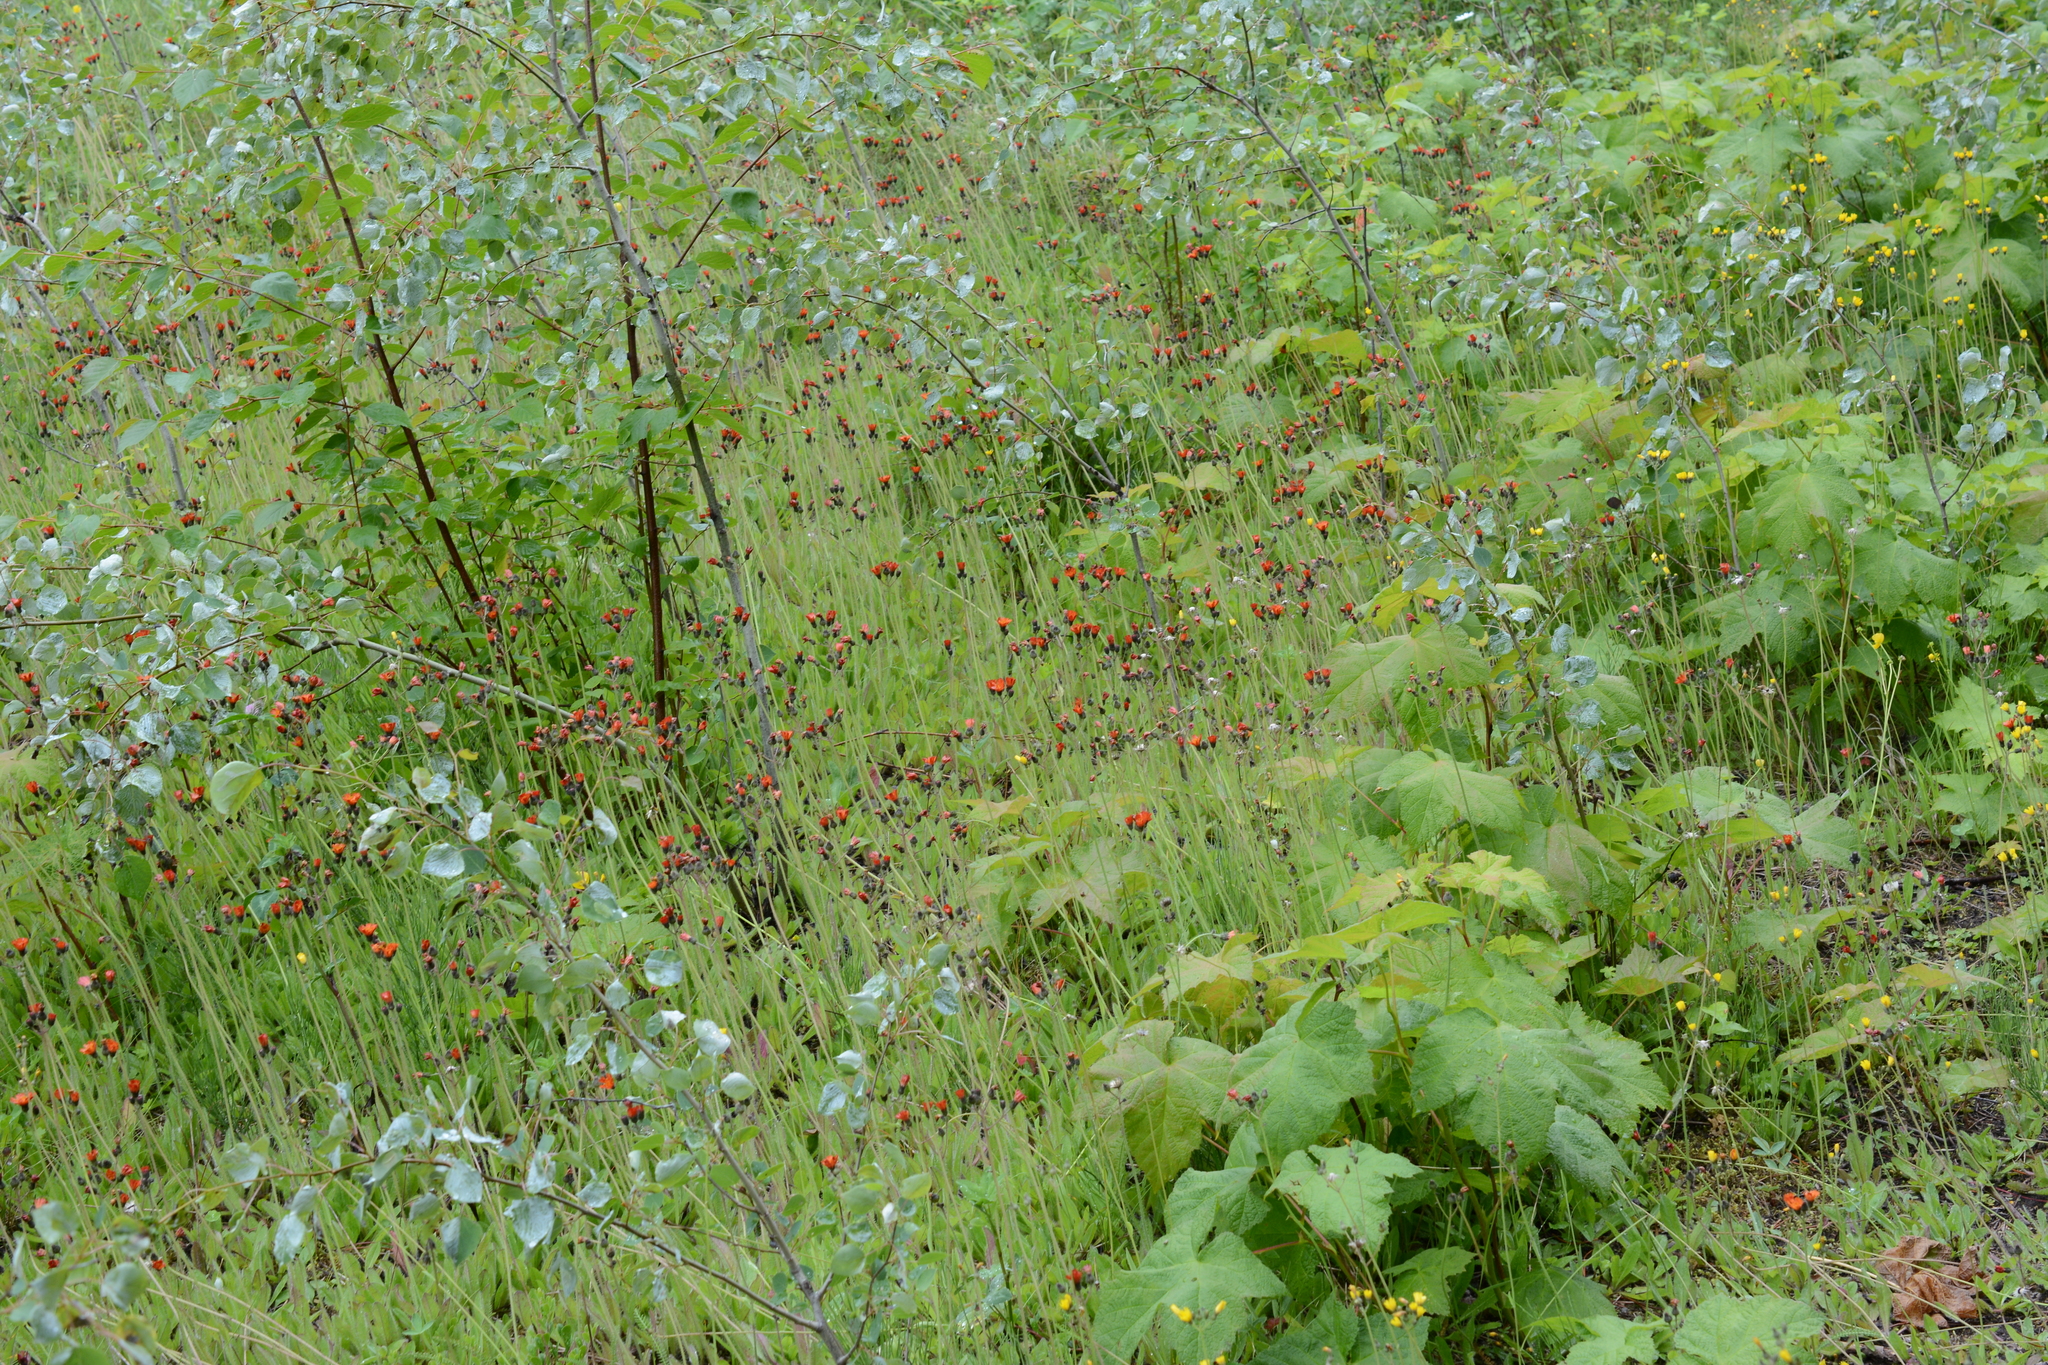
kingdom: Plantae
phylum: Tracheophyta
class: Magnoliopsida
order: Asterales
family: Asteraceae
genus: Pilosella
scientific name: Pilosella aurantiaca
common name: Fox-and-cubs
